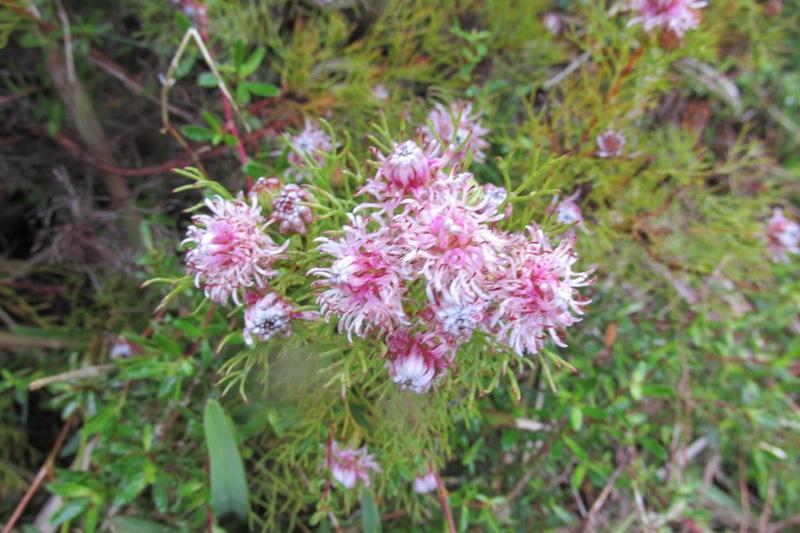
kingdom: Plantae
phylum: Tracheophyta
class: Magnoliopsida
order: Proteales
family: Proteaceae
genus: Serruria
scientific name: Serruria
